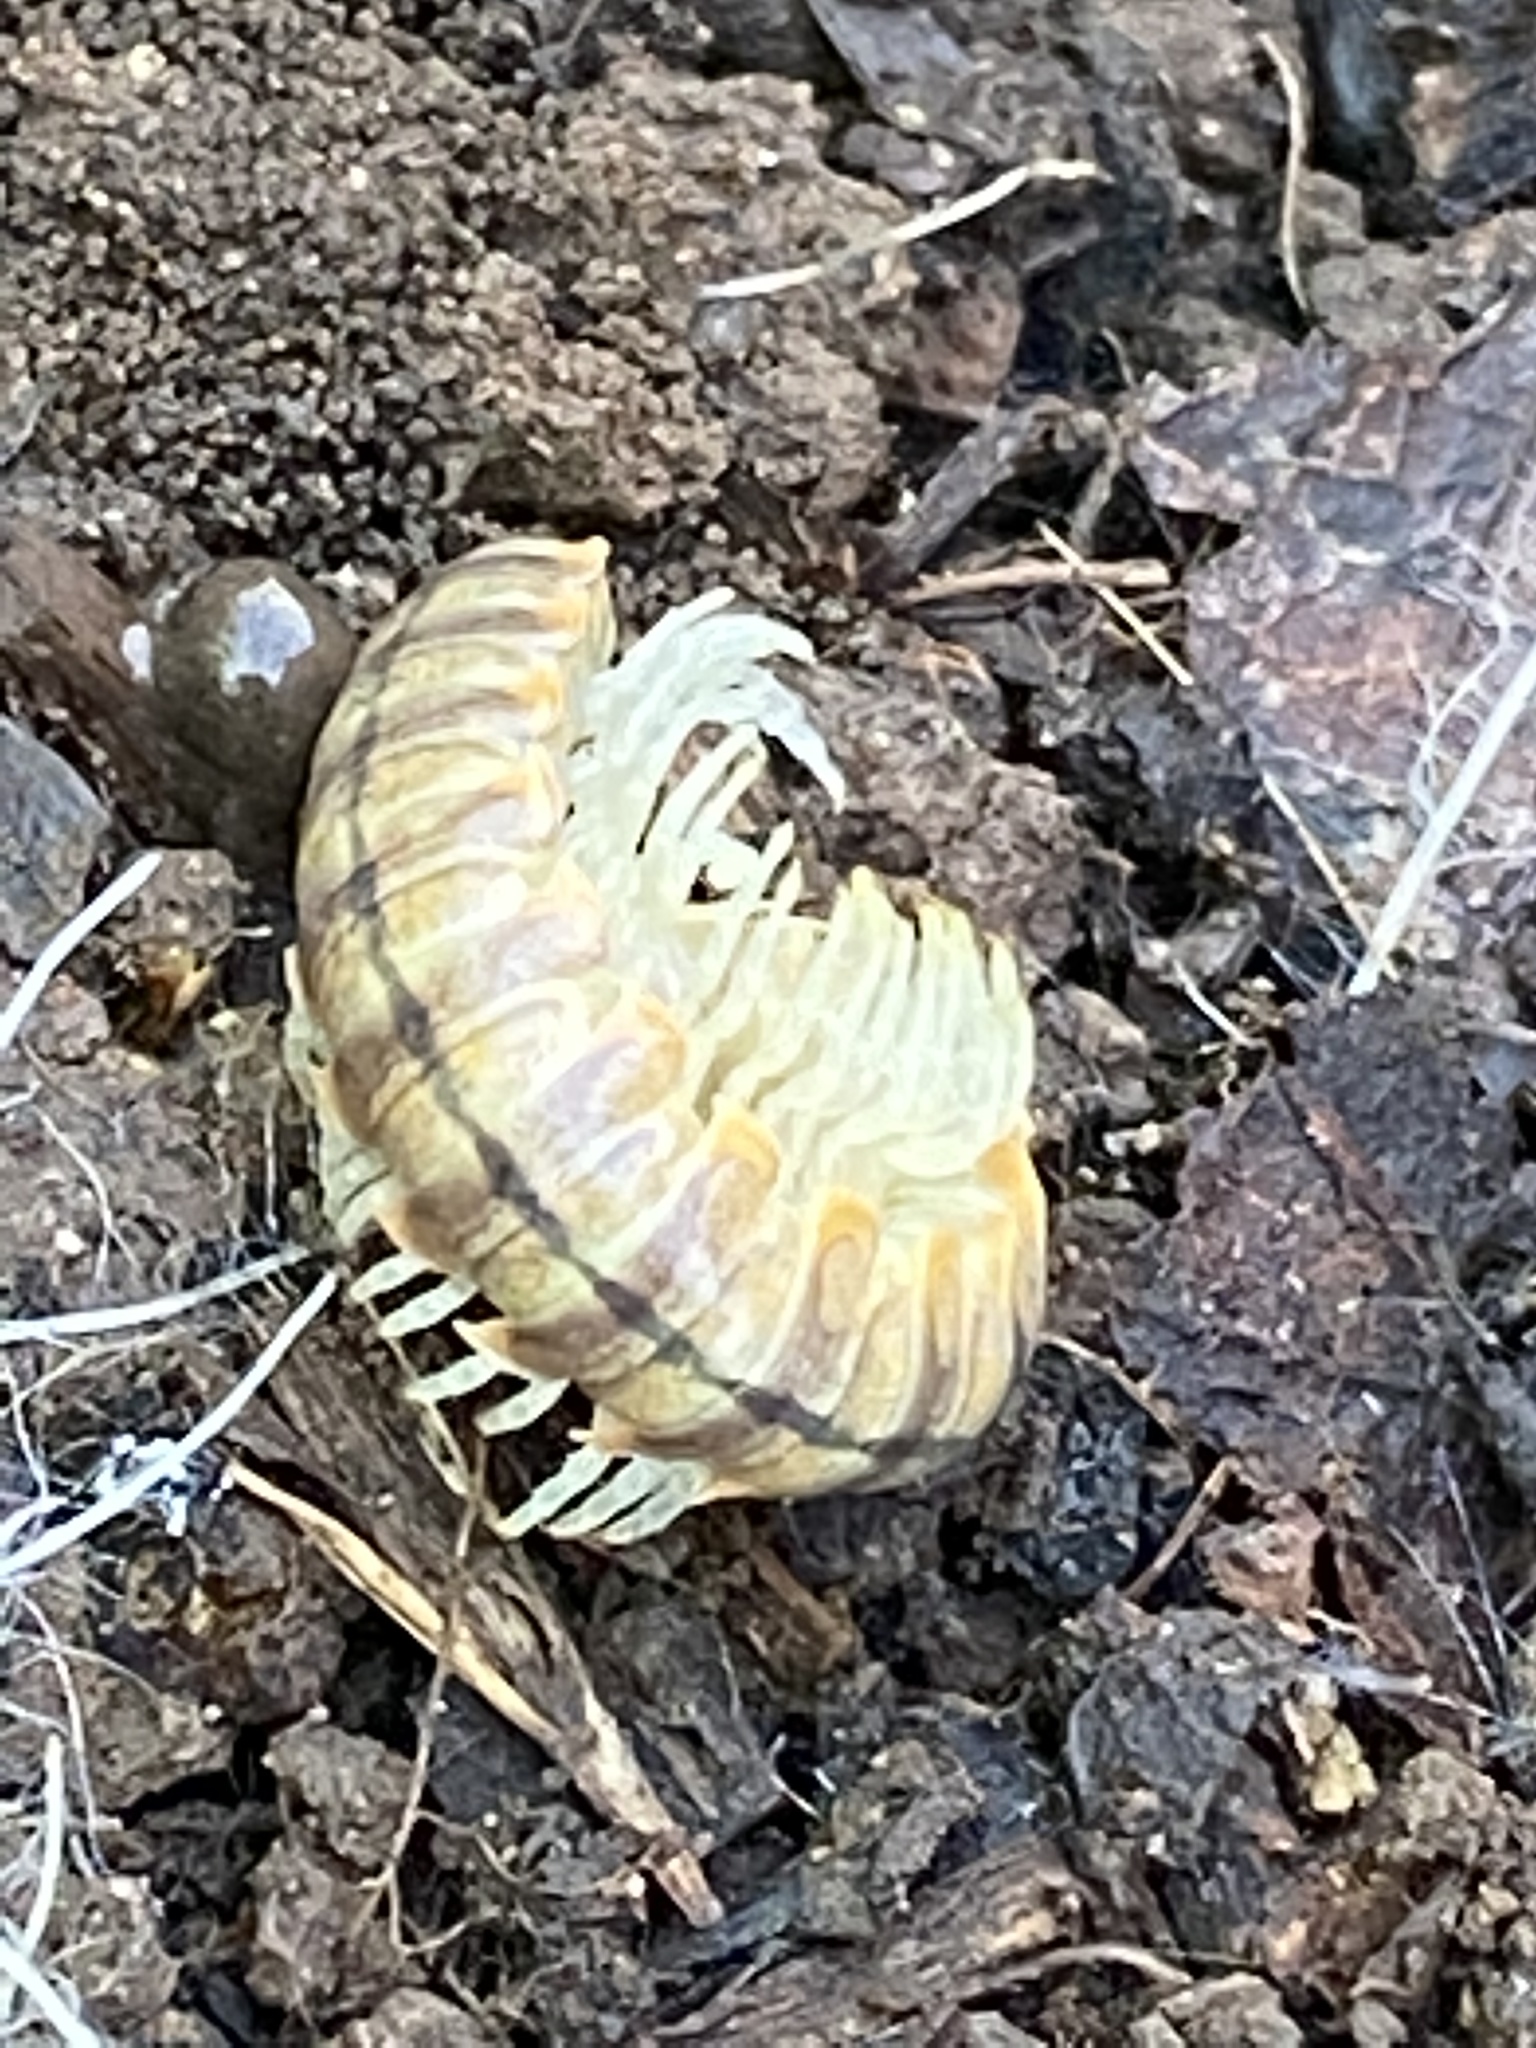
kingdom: Animalia
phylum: Arthropoda
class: Diplopoda
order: Polydesmida
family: Xystodesmidae
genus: Xystocheir
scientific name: Xystocheir dissecta
